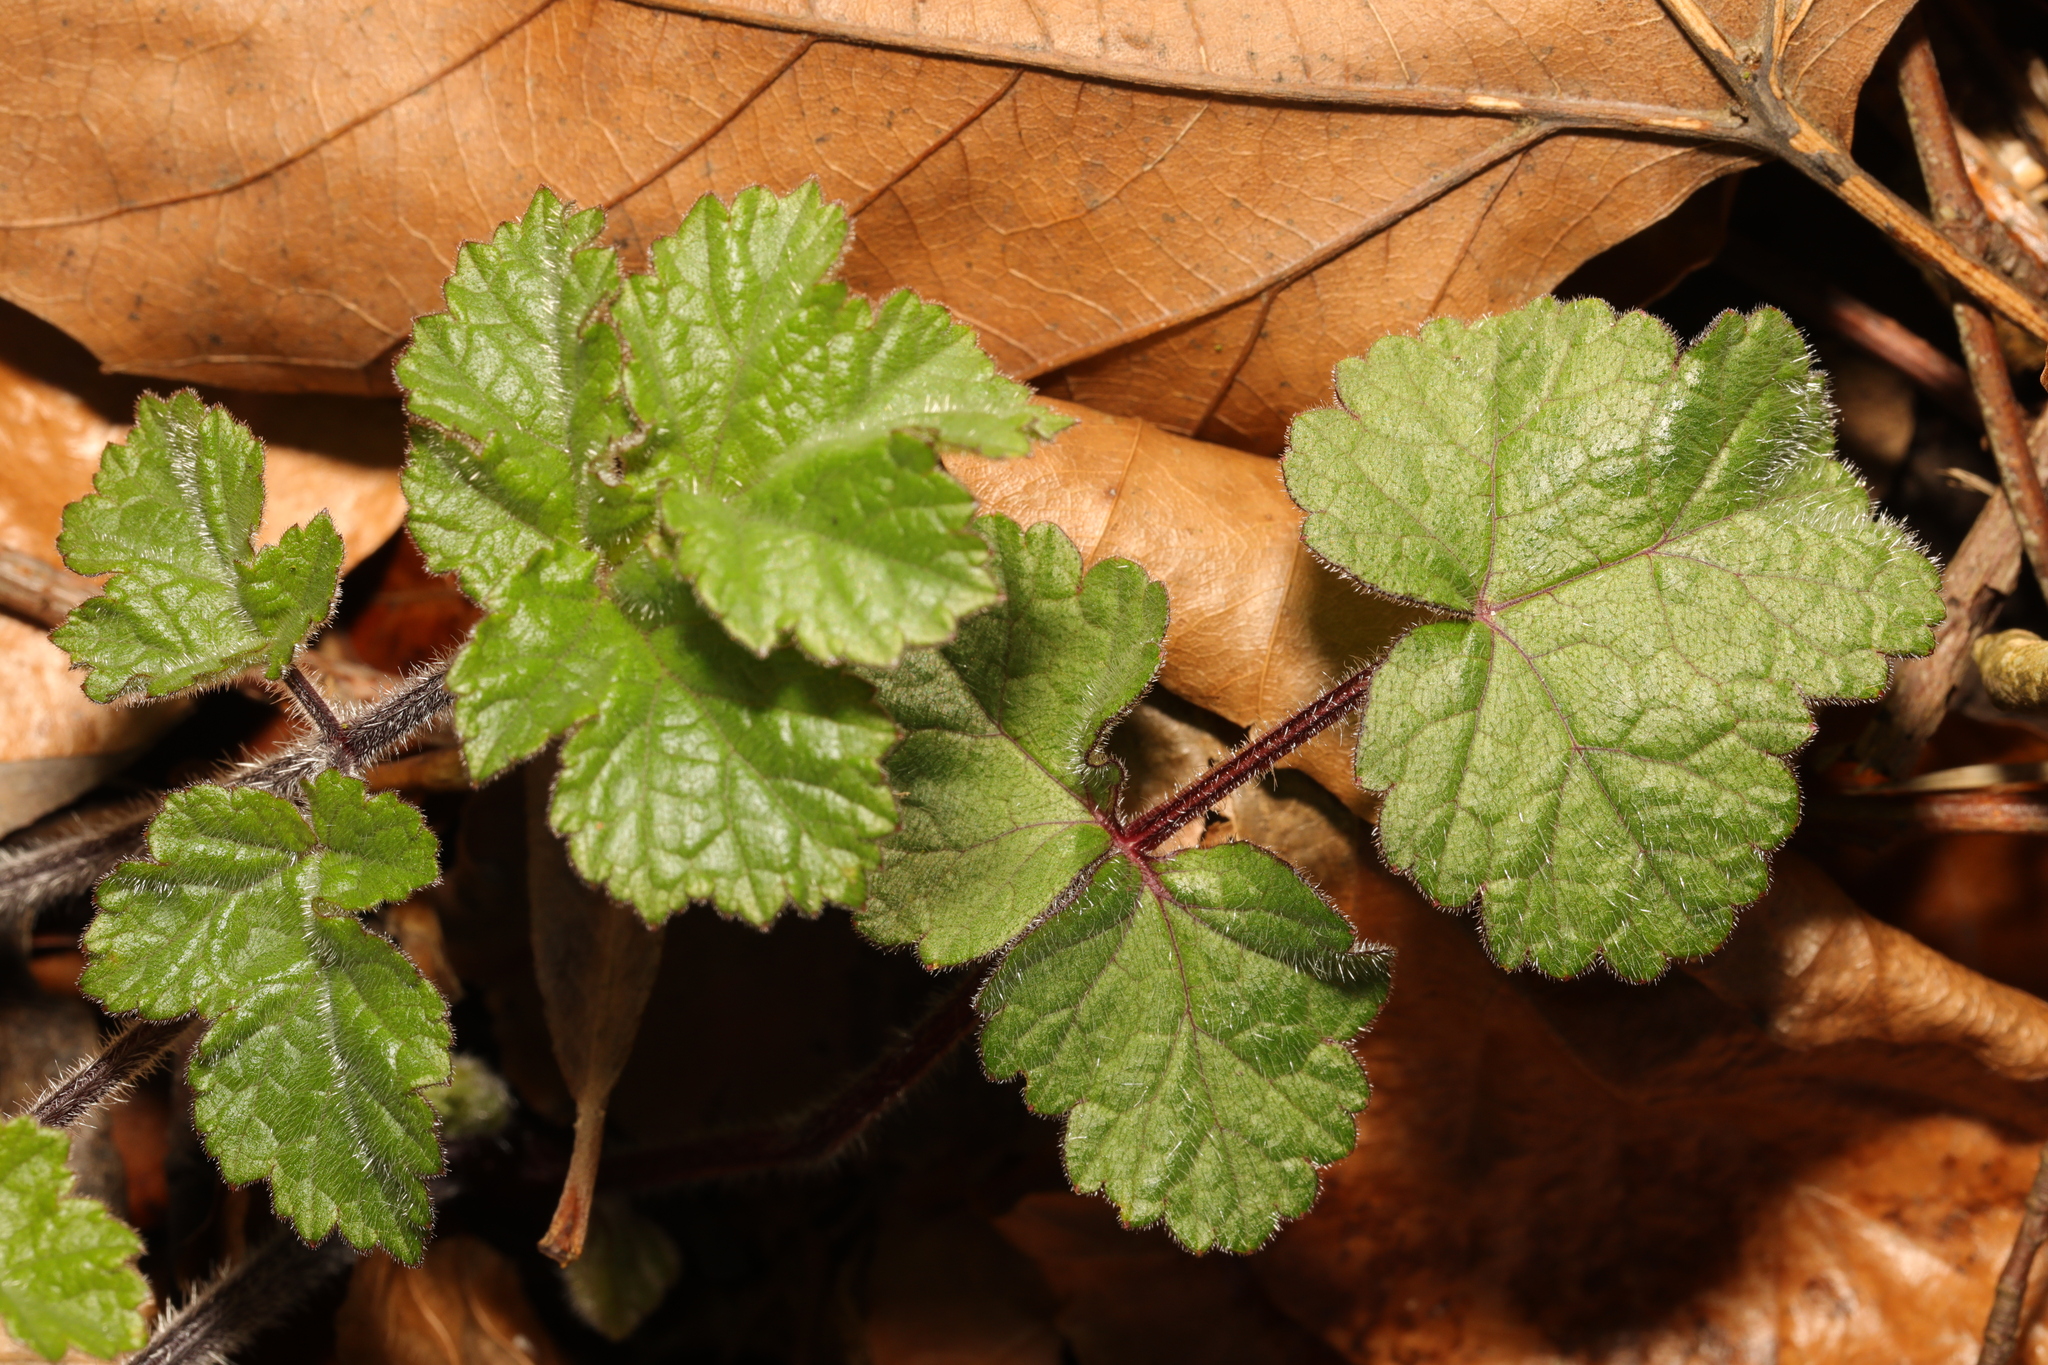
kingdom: Plantae
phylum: Tracheophyta
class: Magnoliopsida
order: Apiales
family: Apiaceae
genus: Heracleum
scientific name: Heracleum sphondylium
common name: Hogweed
